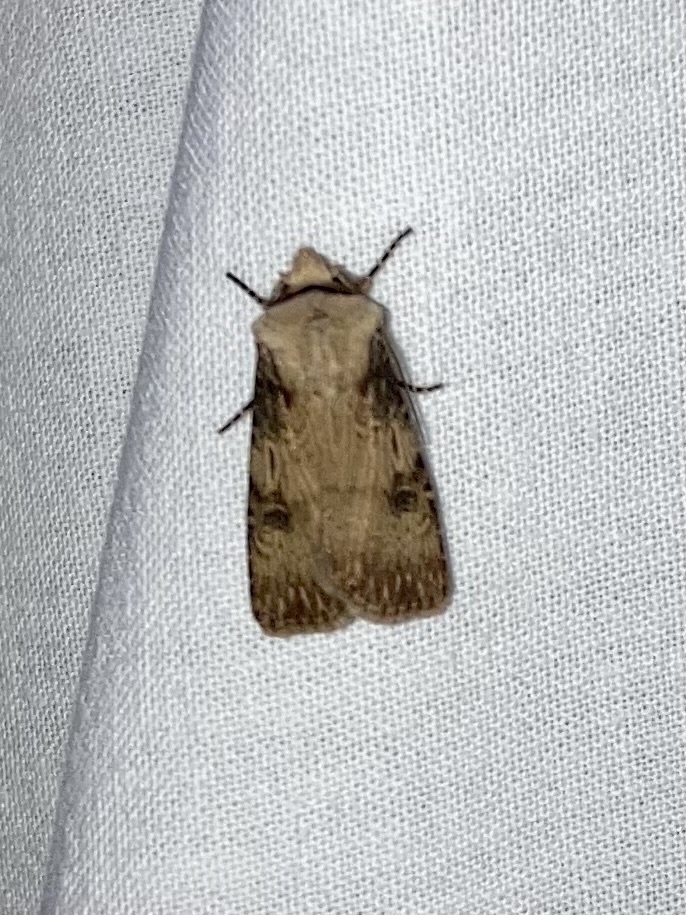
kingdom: Animalia
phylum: Arthropoda
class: Insecta
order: Lepidoptera
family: Noctuidae
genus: Agrotis
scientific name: Agrotis puta
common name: Shuttle-shaped dart
